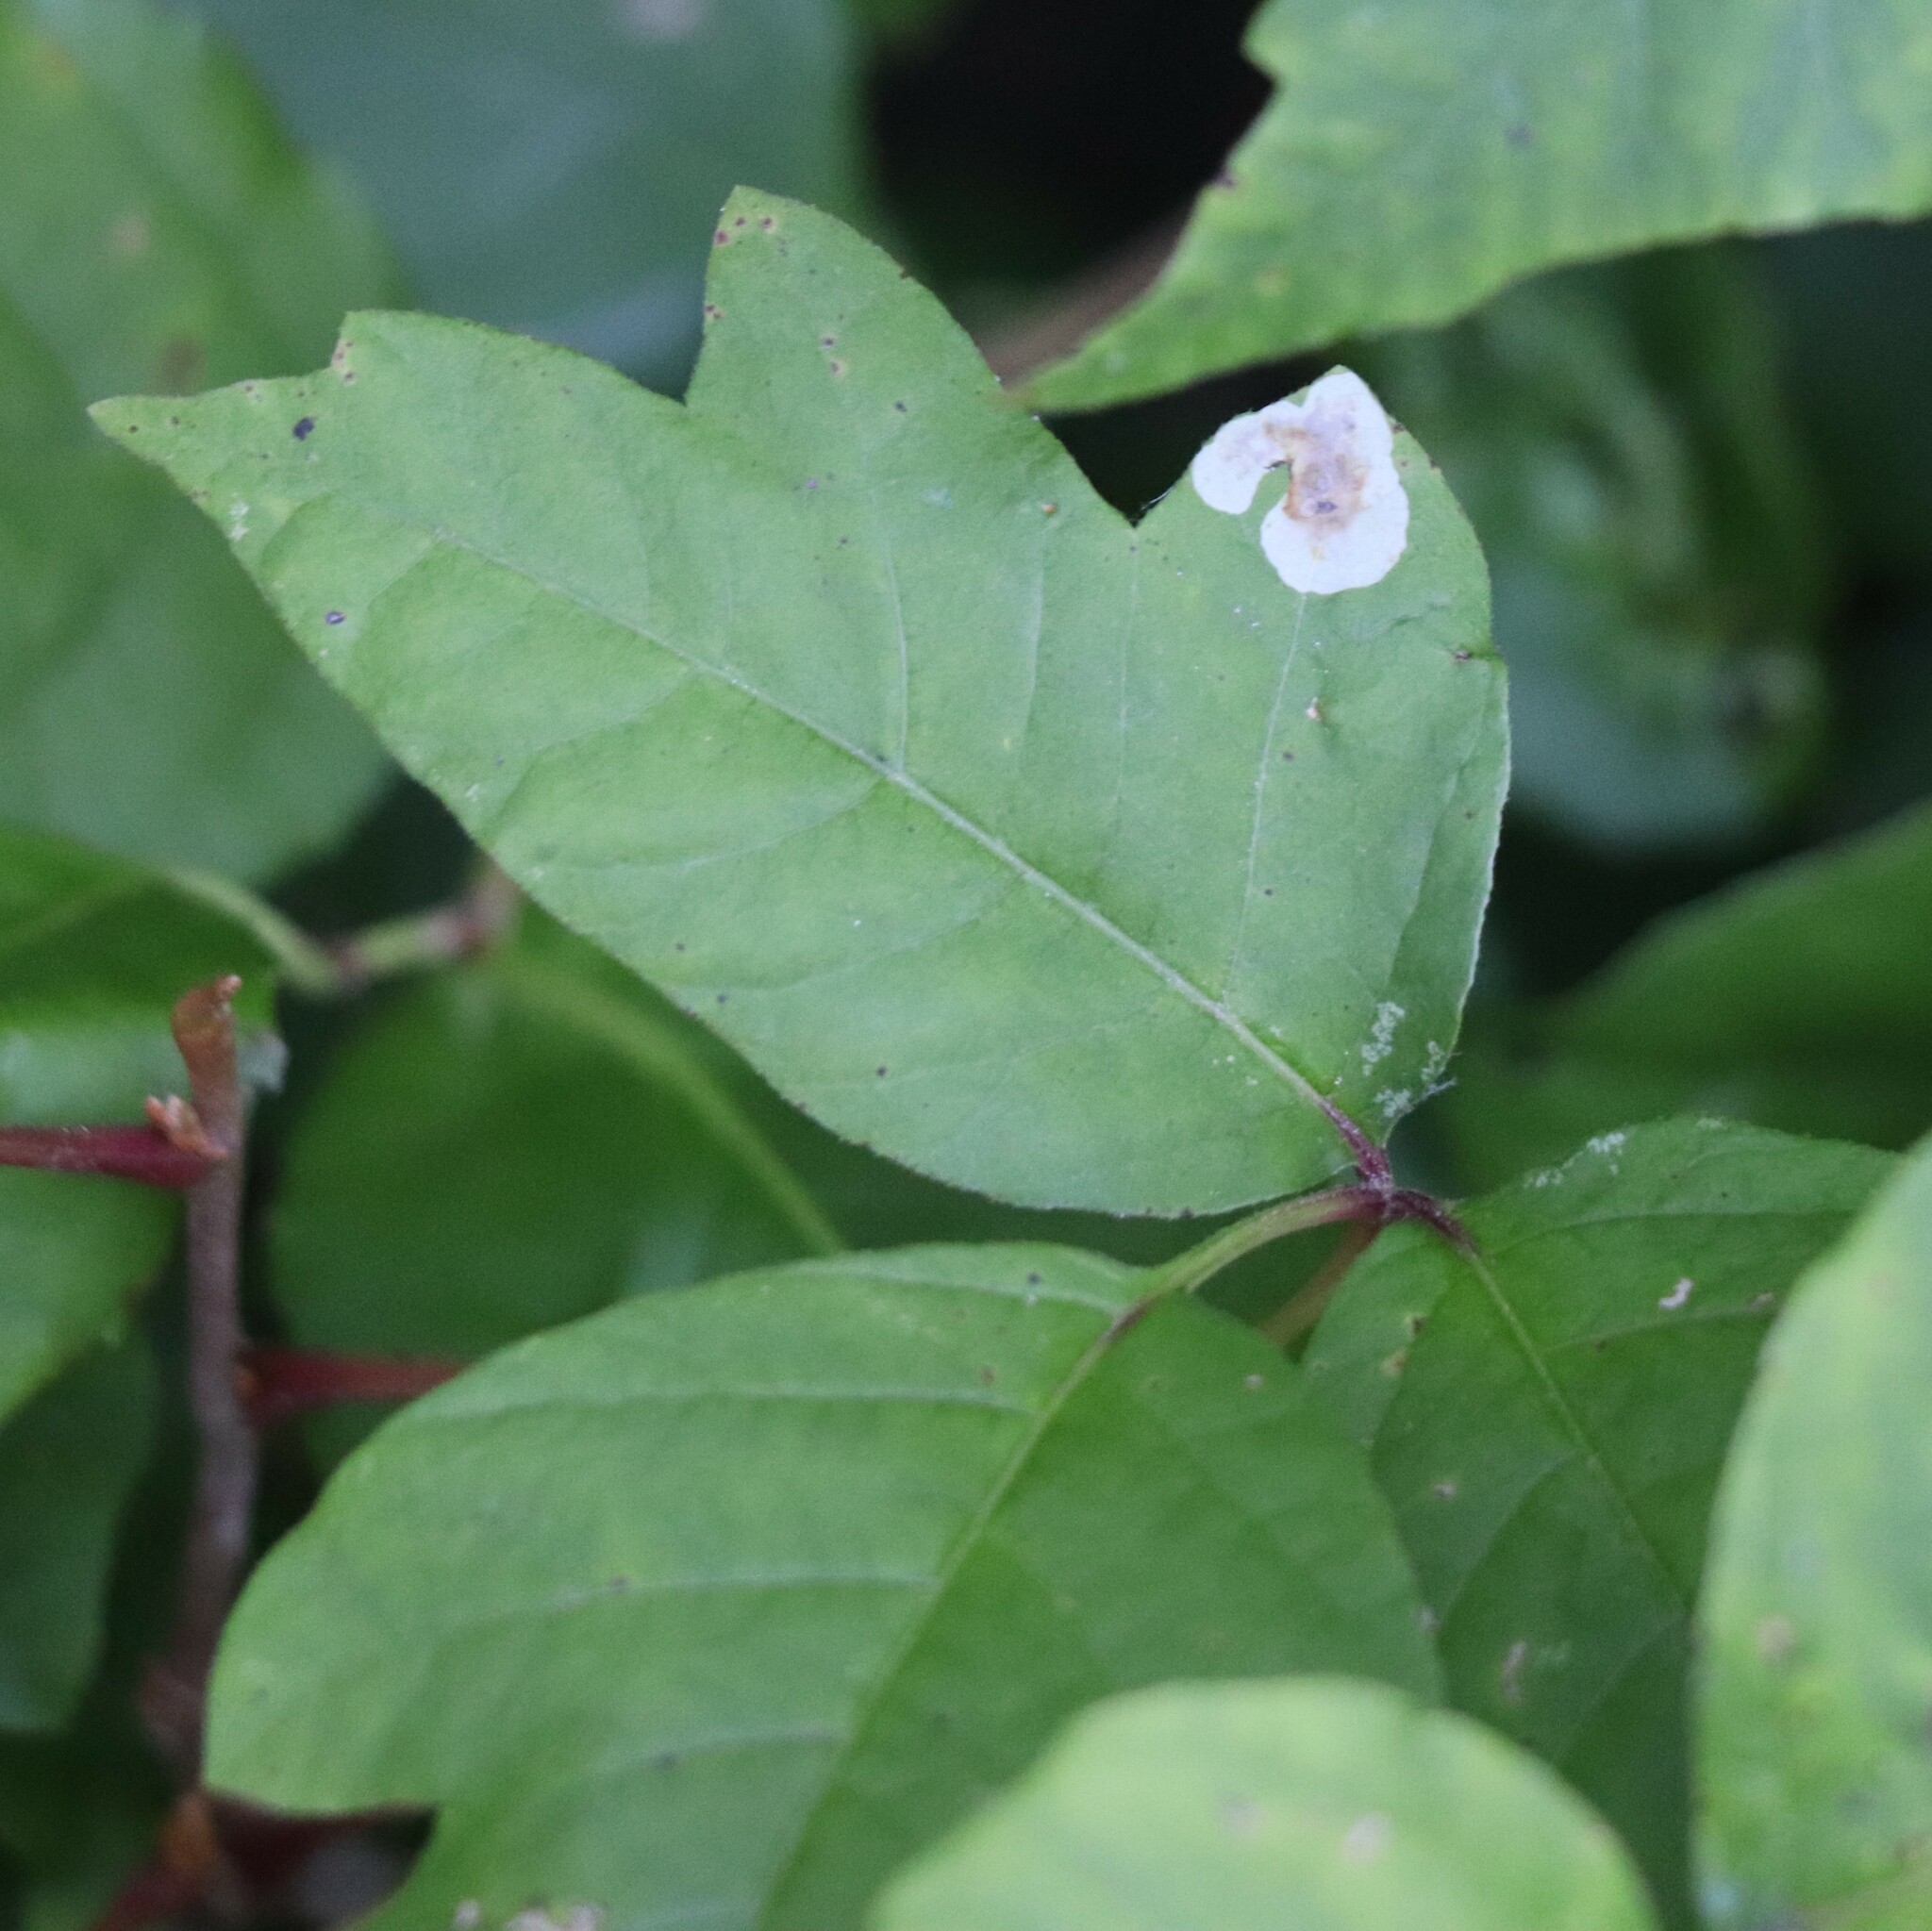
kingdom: Animalia
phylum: Arthropoda
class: Insecta
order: Lepidoptera
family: Gracillariidae
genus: Cameraria
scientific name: Cameraria guttifinitella
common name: Poison ivy leaf-miner moth
